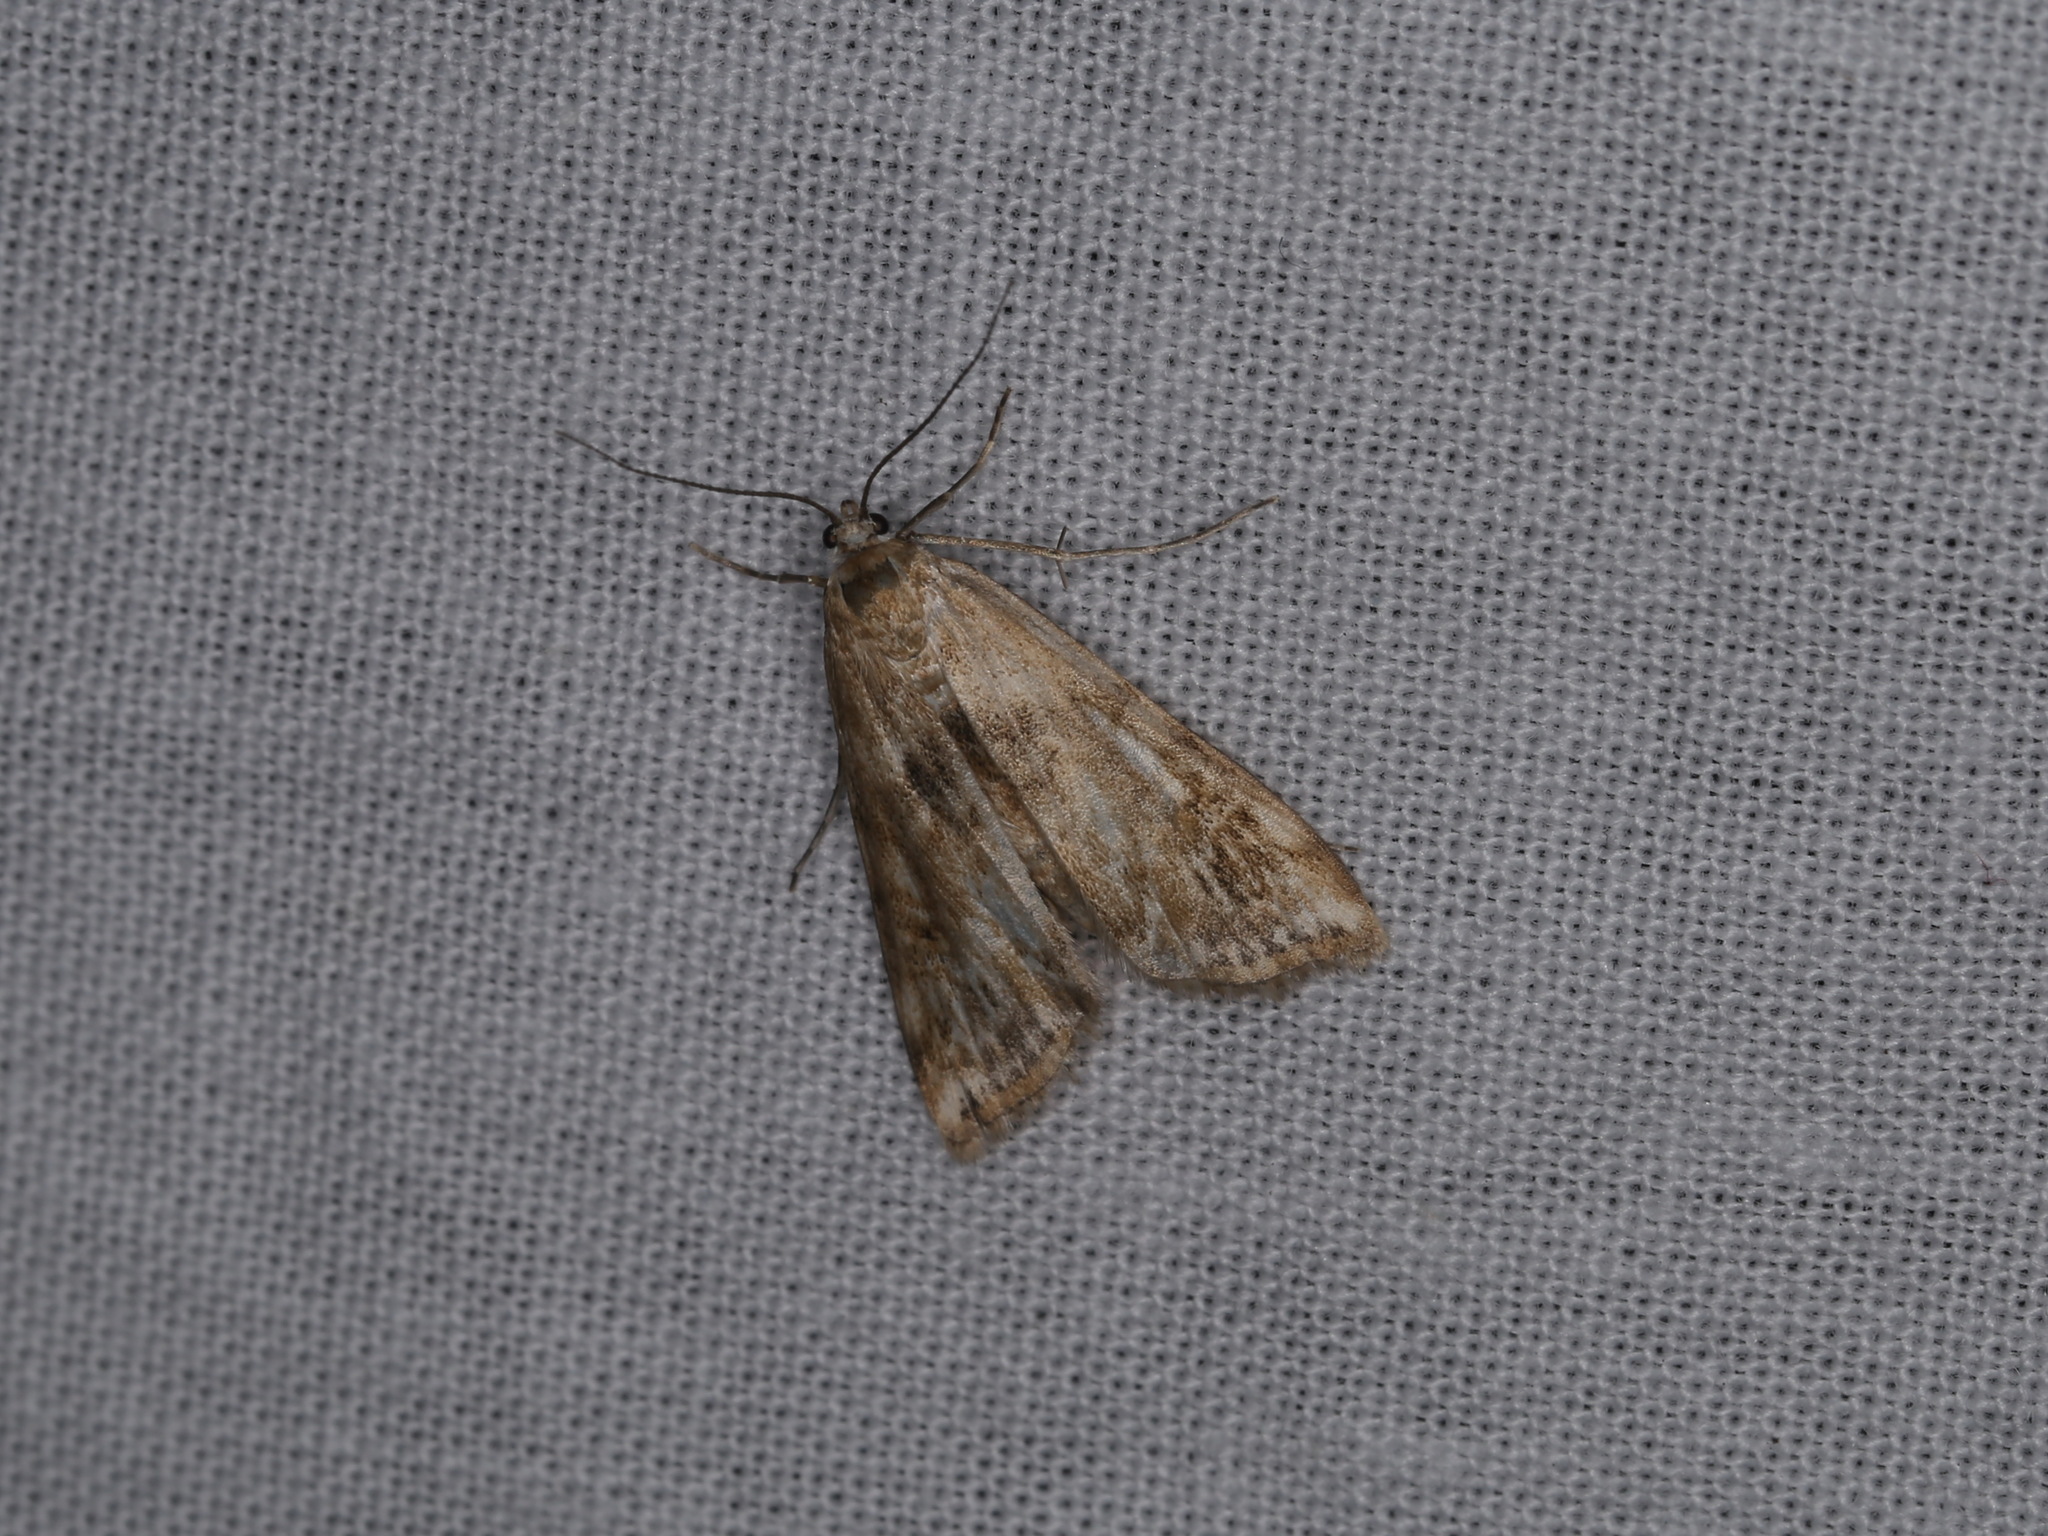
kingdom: Animalia
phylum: Arthropoda
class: Insecta
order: Lepidoptera
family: Crambidae
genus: Cataclysta
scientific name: Cataclysta lemnata
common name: Small china-mark
